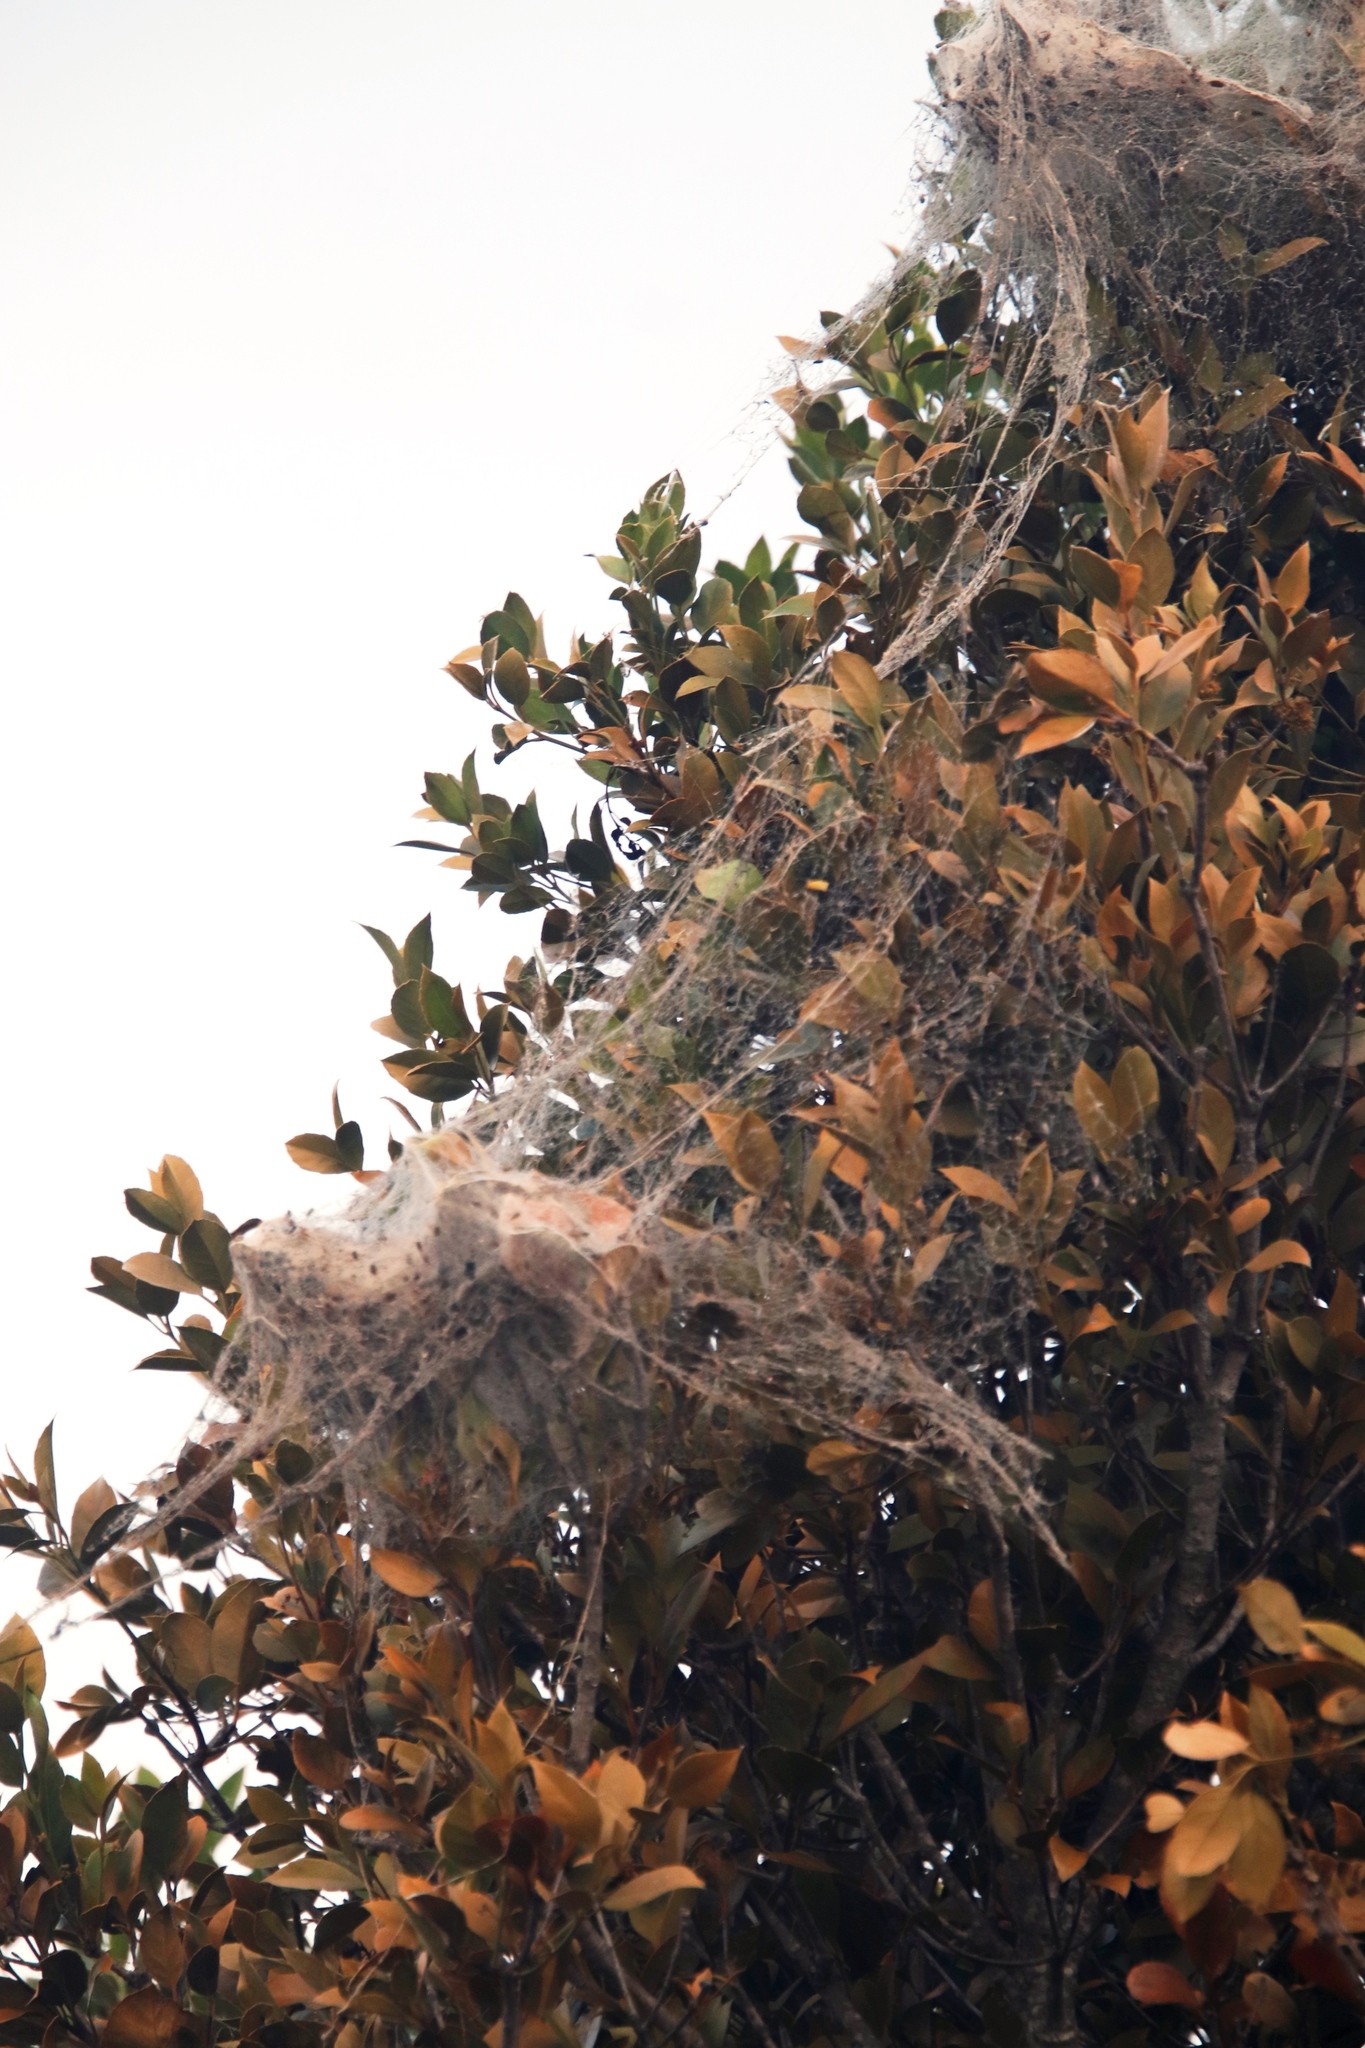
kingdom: Animalia
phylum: Arthropoda
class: Arachnida
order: Araneae
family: Eresidae
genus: Stegodyphus
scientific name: Stegodyphus dumicola
